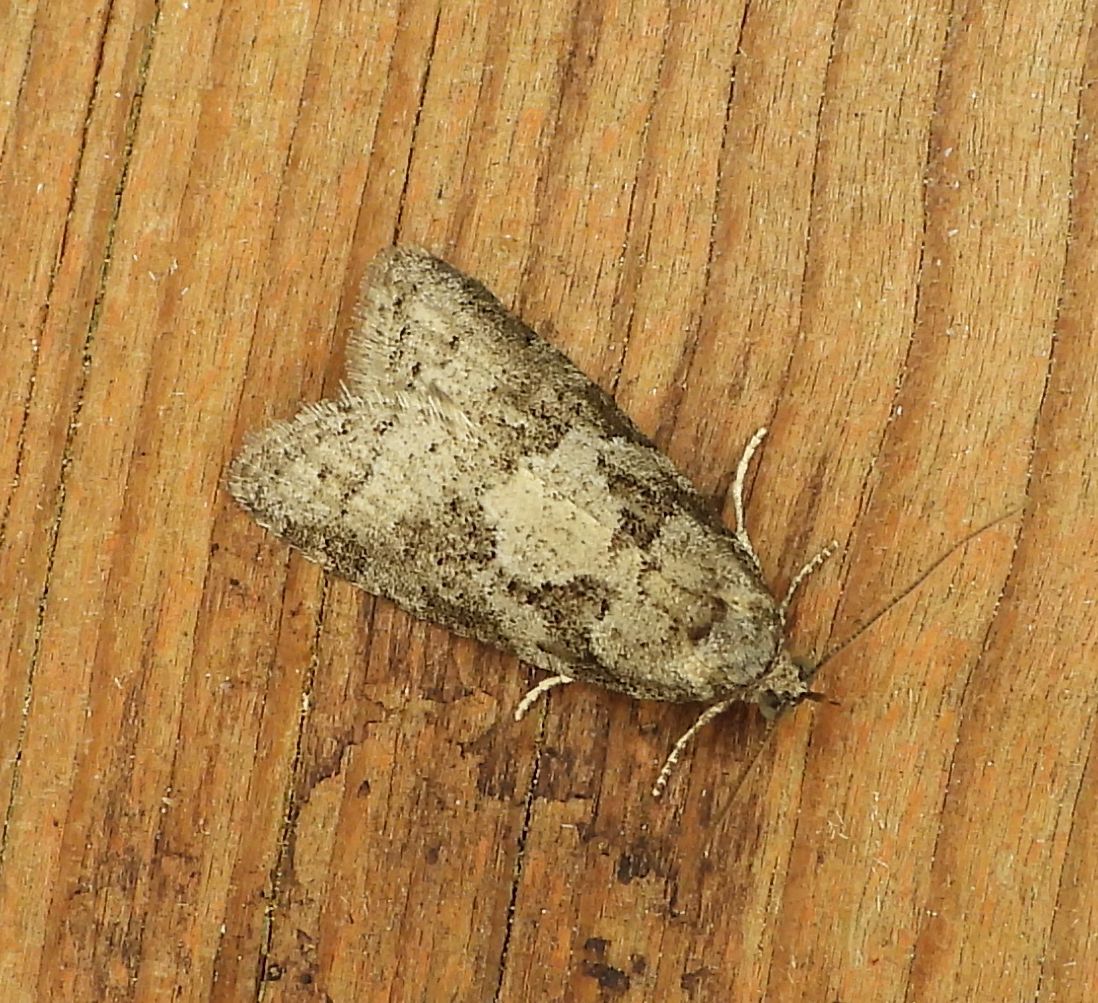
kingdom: Animalia
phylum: Arthropoda
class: Insecta
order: Lepidoptera
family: Tortricidae
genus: Cnephasia
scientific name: Cnephasia stephensiana
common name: Grey tortrix
